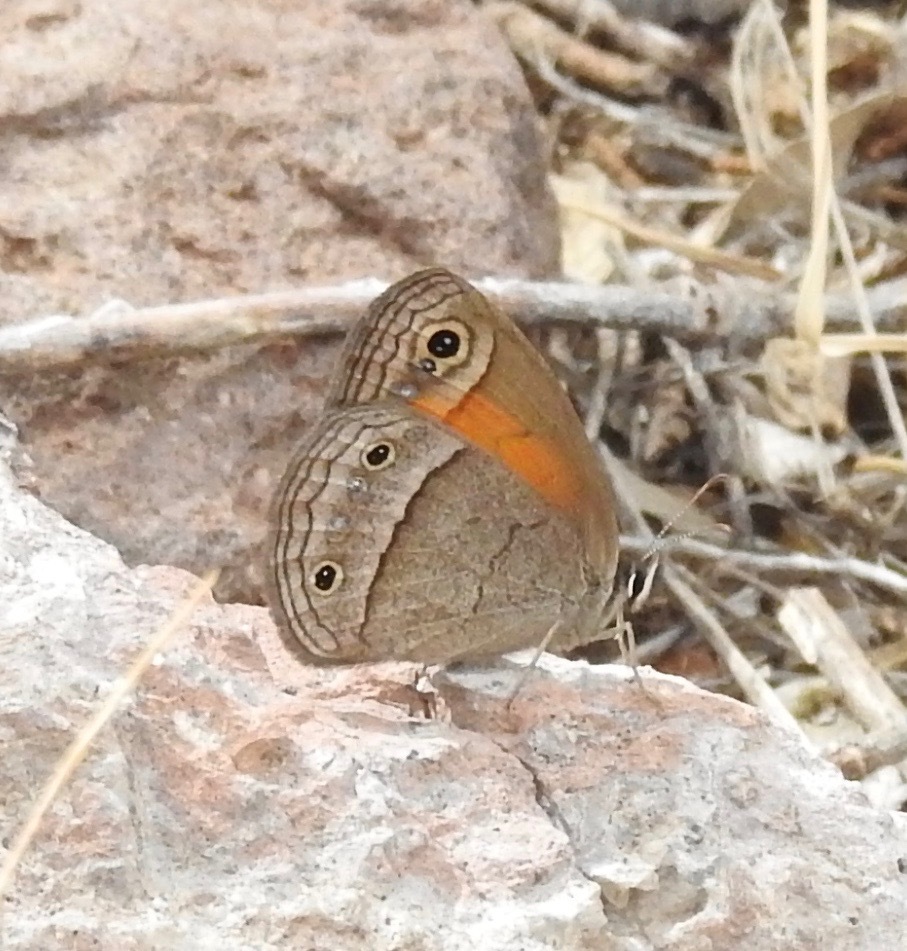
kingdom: Animalia
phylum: Arthropoda
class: Insecta
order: Lepidoptera
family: Nymphalidae
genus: Euptychia
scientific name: Euptychia Cissia rubricata
